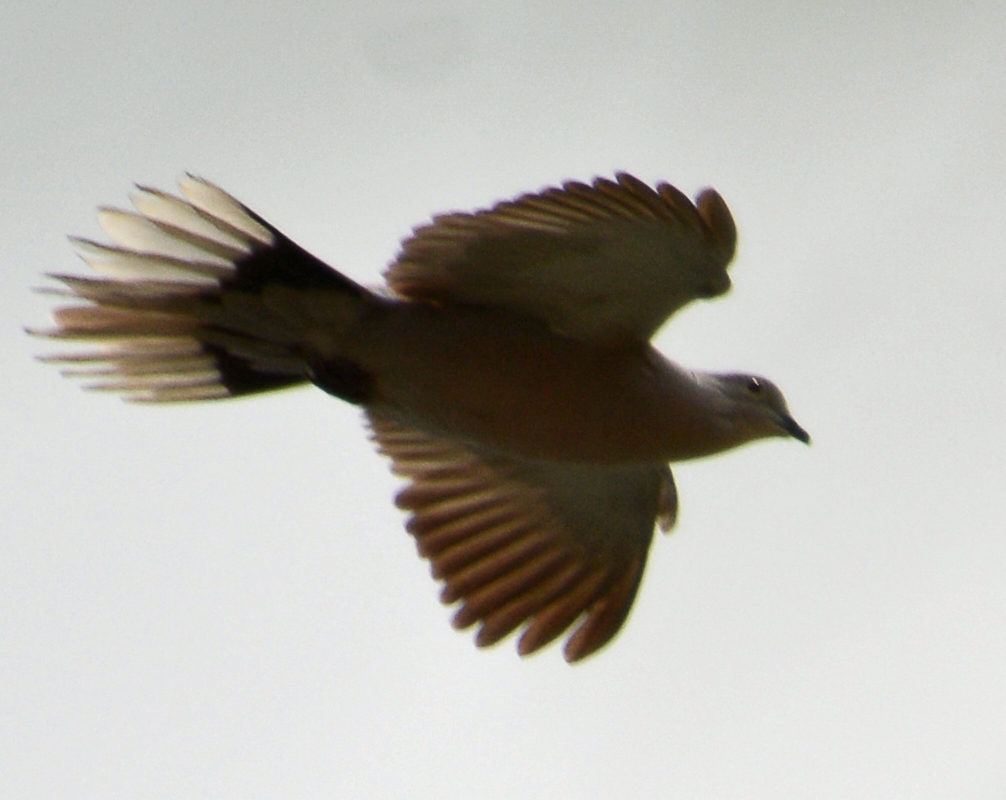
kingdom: Animalia
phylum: Chordata
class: Aves
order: Columbiformes
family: Columbidae
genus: Streptopelia
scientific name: Streptopelia decaocto
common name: Eurasian collared dove
